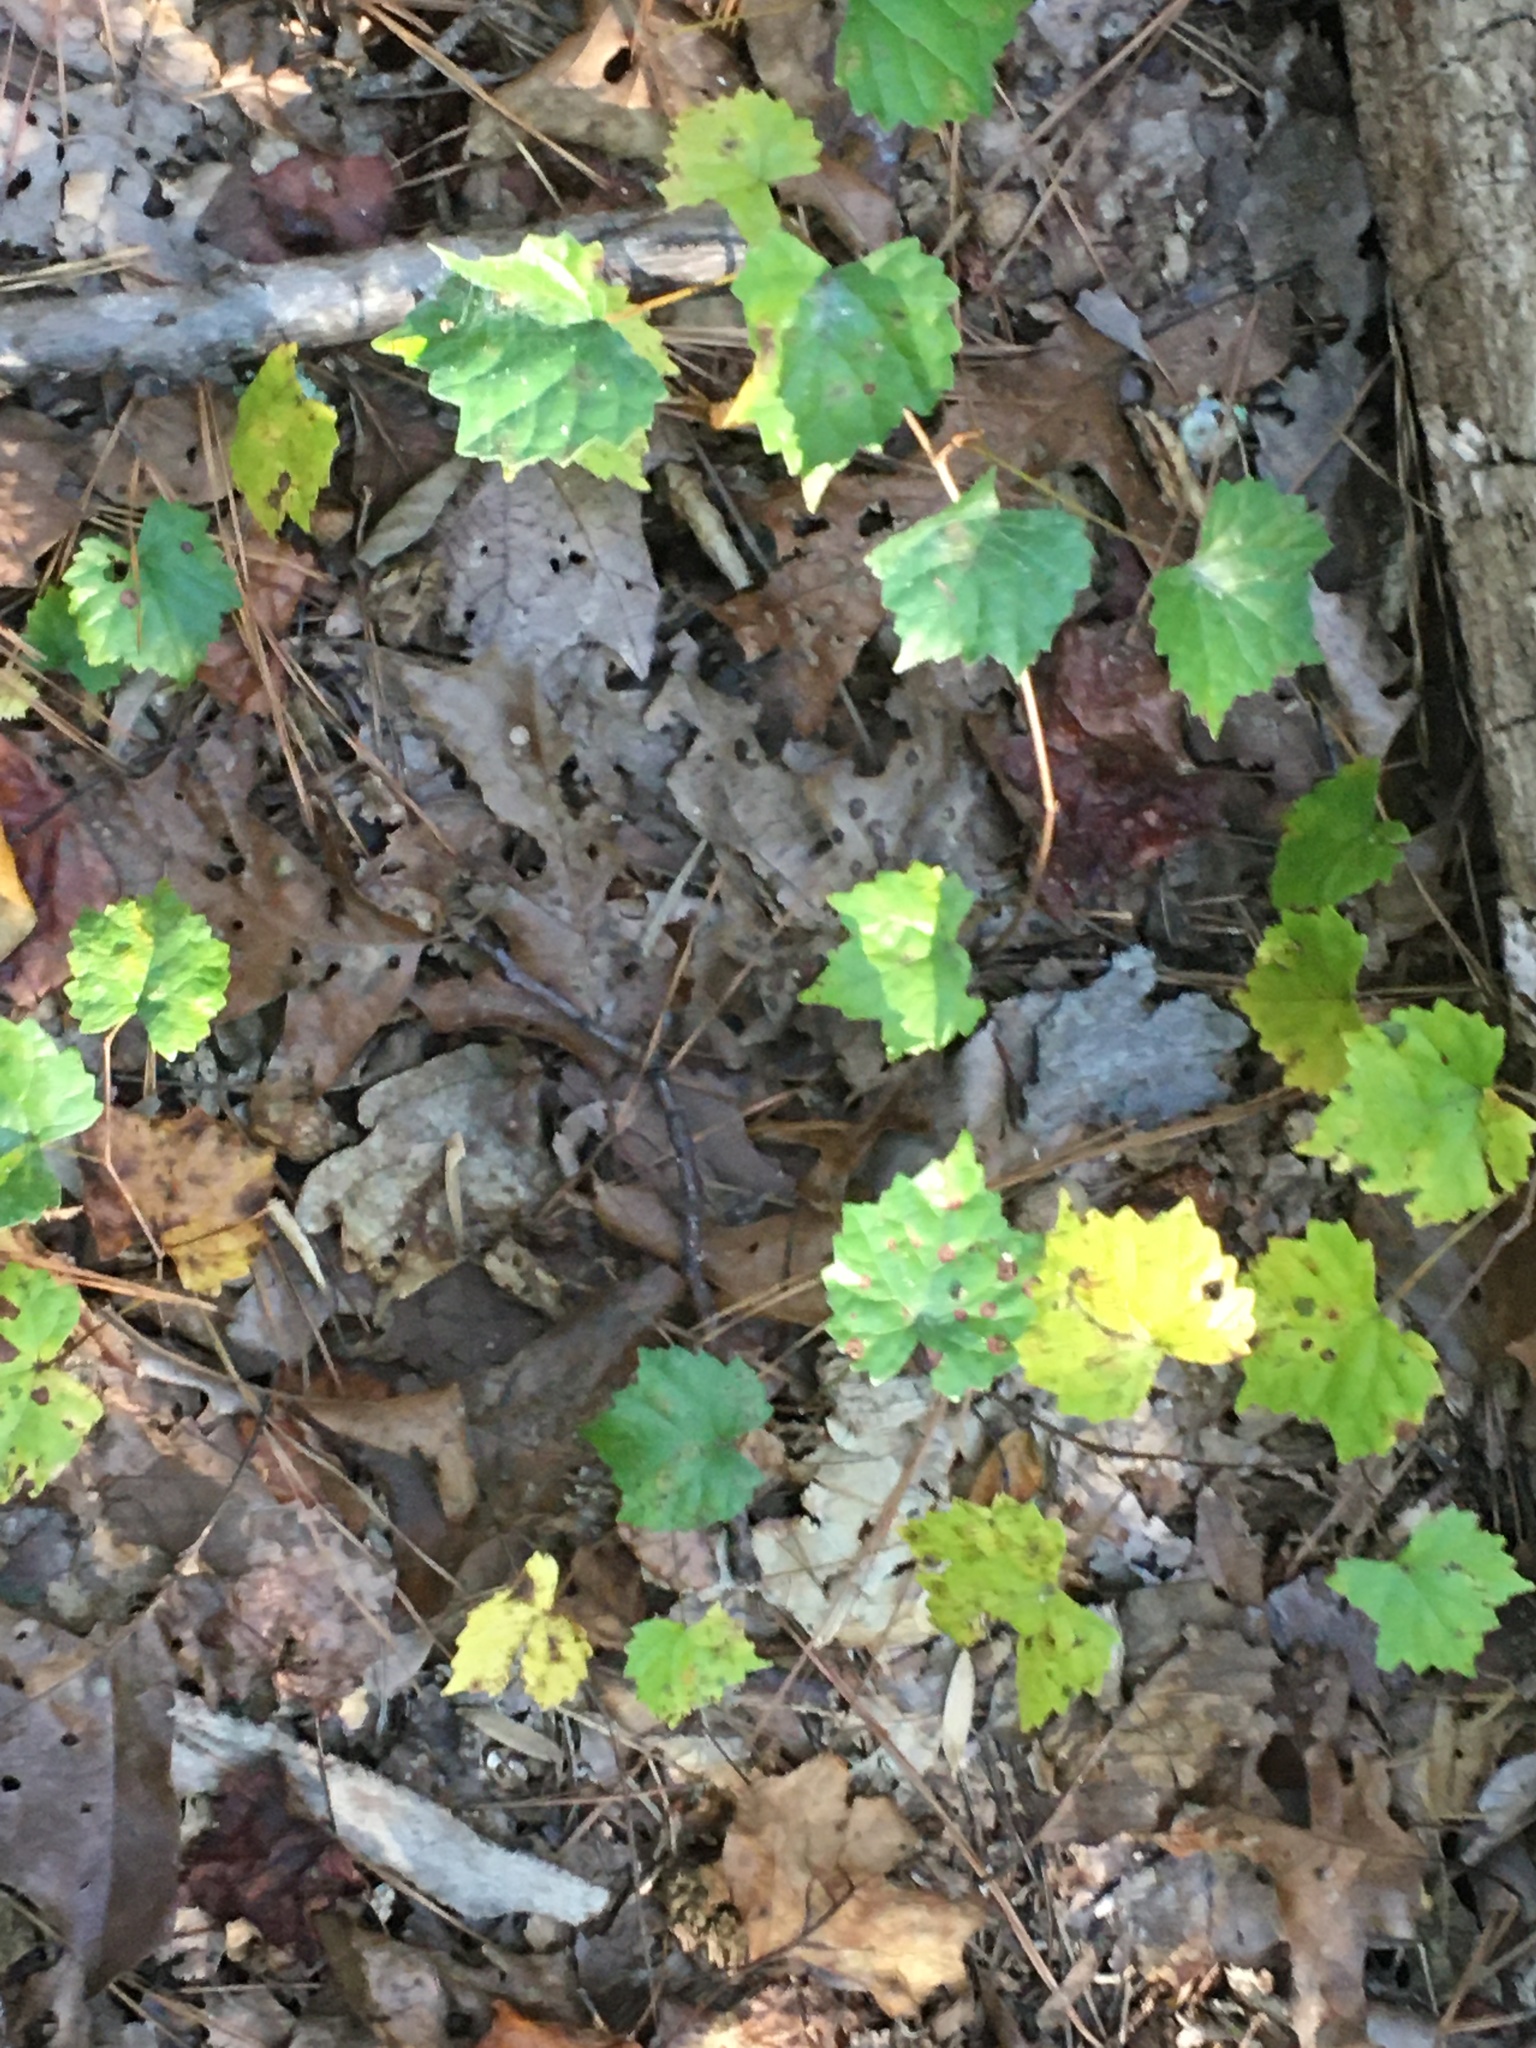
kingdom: Plantae
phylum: Tracheophyta
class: Magnoliopsida
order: Vitales
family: Vitaceae
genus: Vitis
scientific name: Vitis rotundifolia
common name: Muscadine grape
